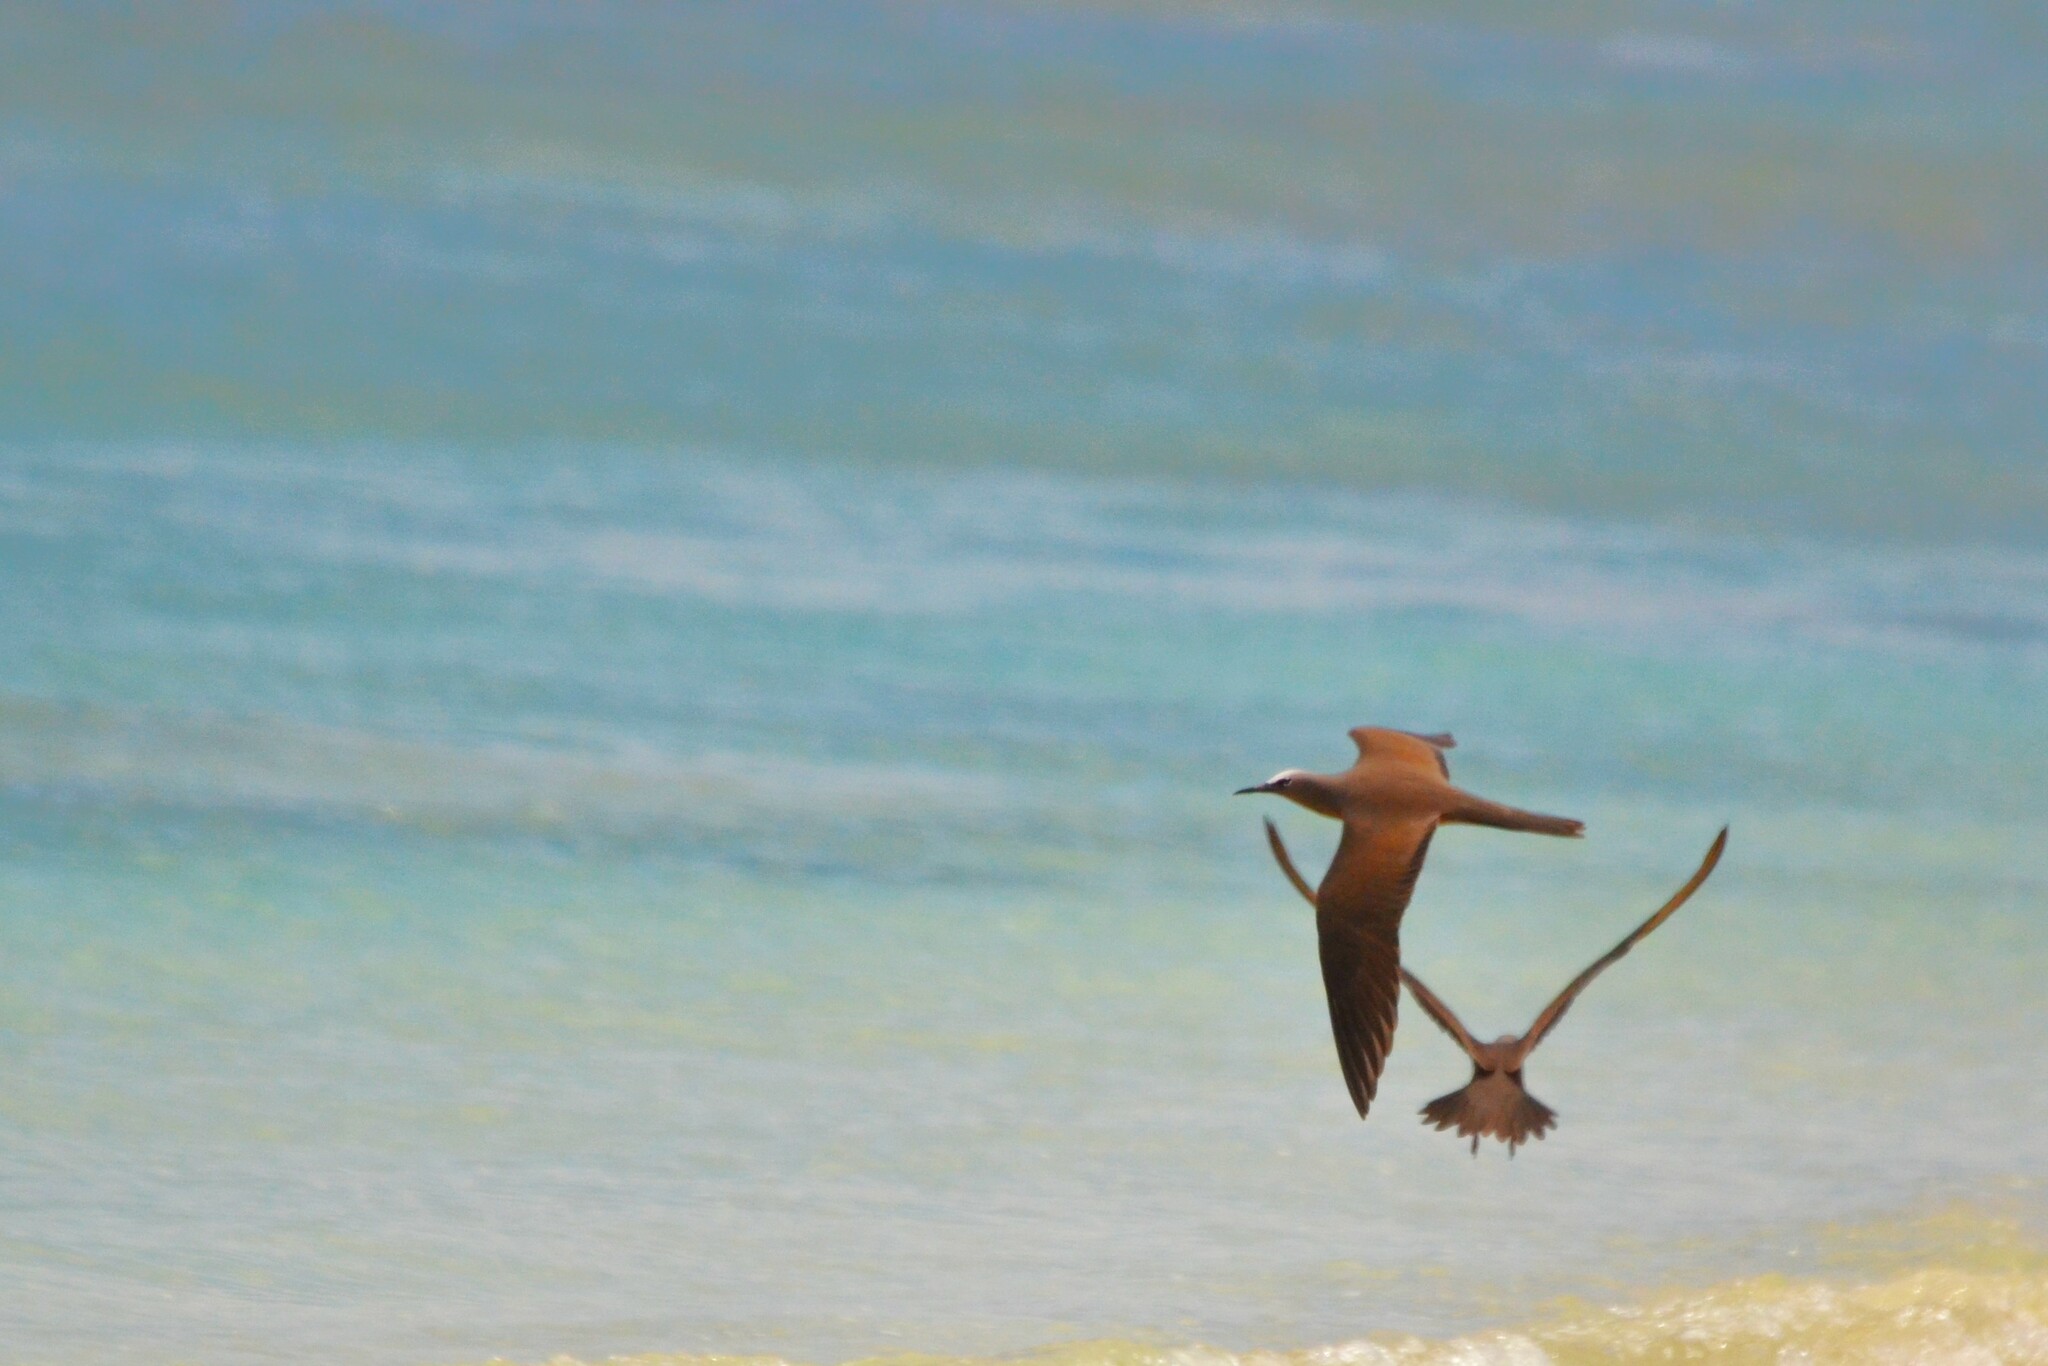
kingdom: Animalia
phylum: Chordata
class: Aves
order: Charadriiformes
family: Laridae
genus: Anous
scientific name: Anous stolidus
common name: Brown noddy
